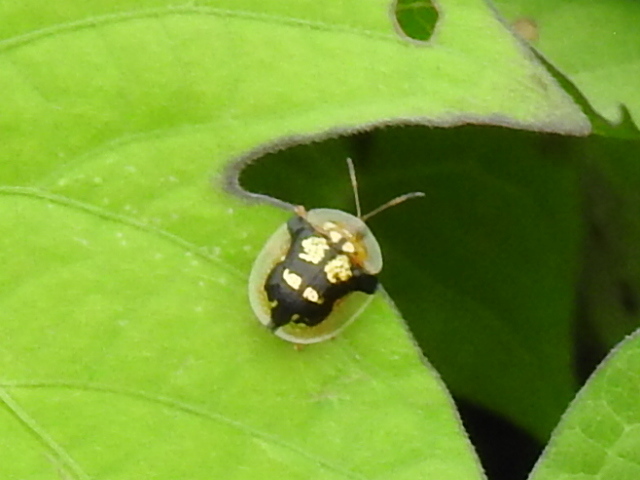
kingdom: Animalia
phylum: Arthropoda
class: Insecta
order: Coleoptera
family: Chrysomelidae
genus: Deloyala
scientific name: Deloyala guttata
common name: Mottled tortoise beetle
